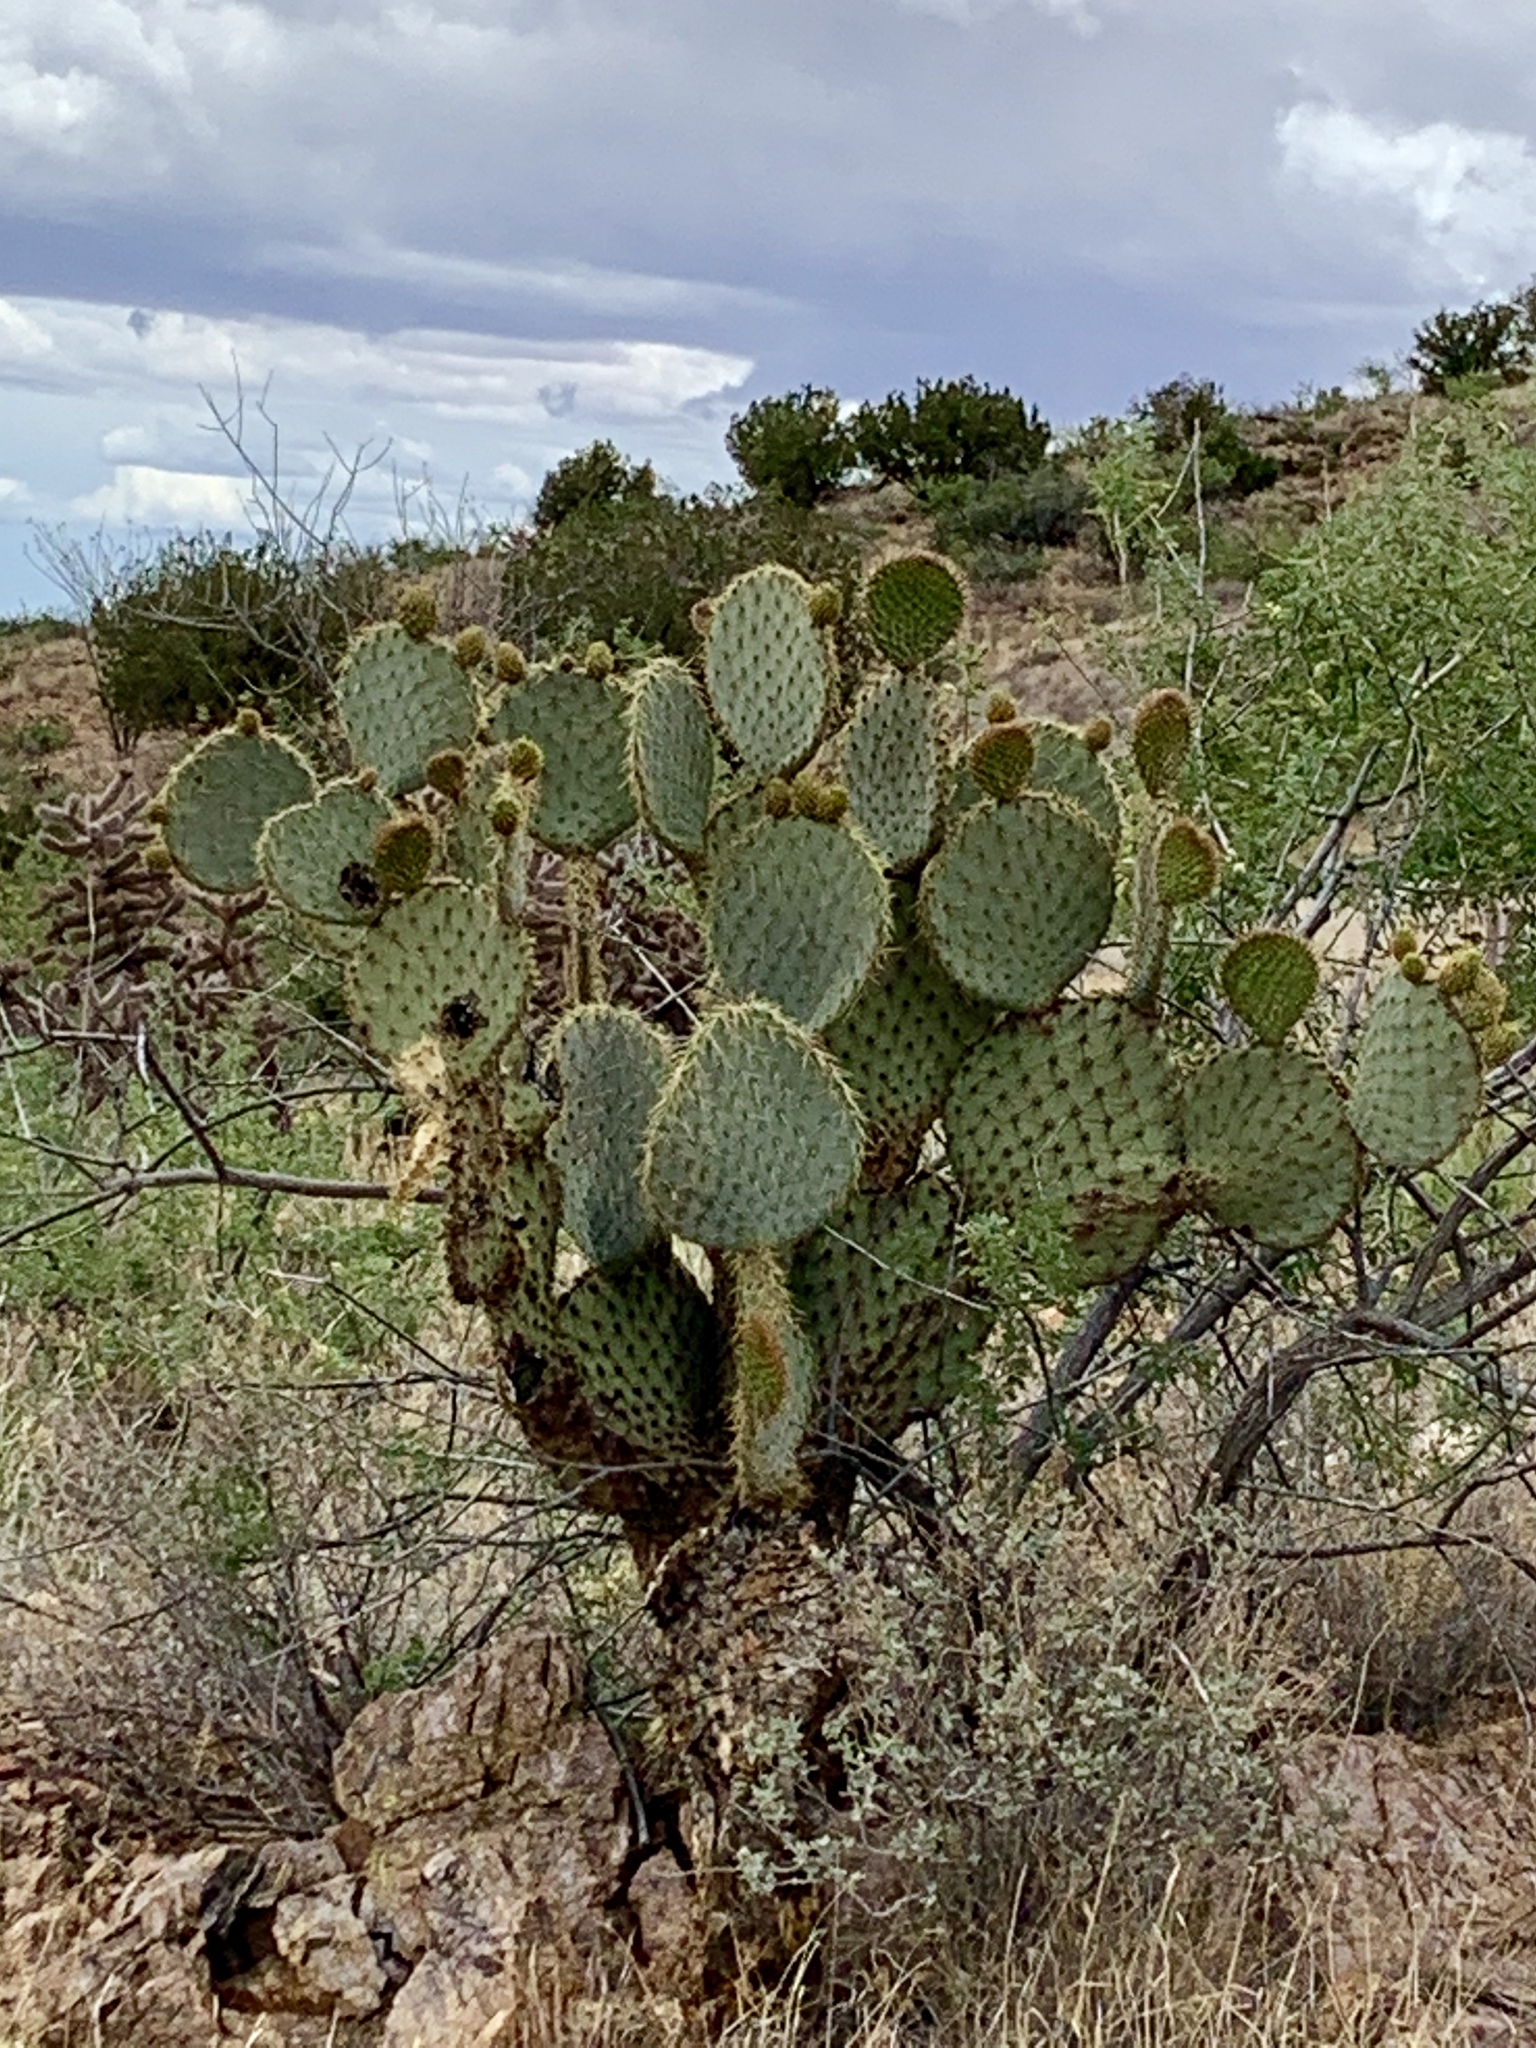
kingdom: Plantae
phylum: Tracheophyta
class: Magnoliopsida
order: Caryophyllales
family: Cactaceae
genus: Opuntia
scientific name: Opuntia chlorotica
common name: Dollar-joint prickly-pear
